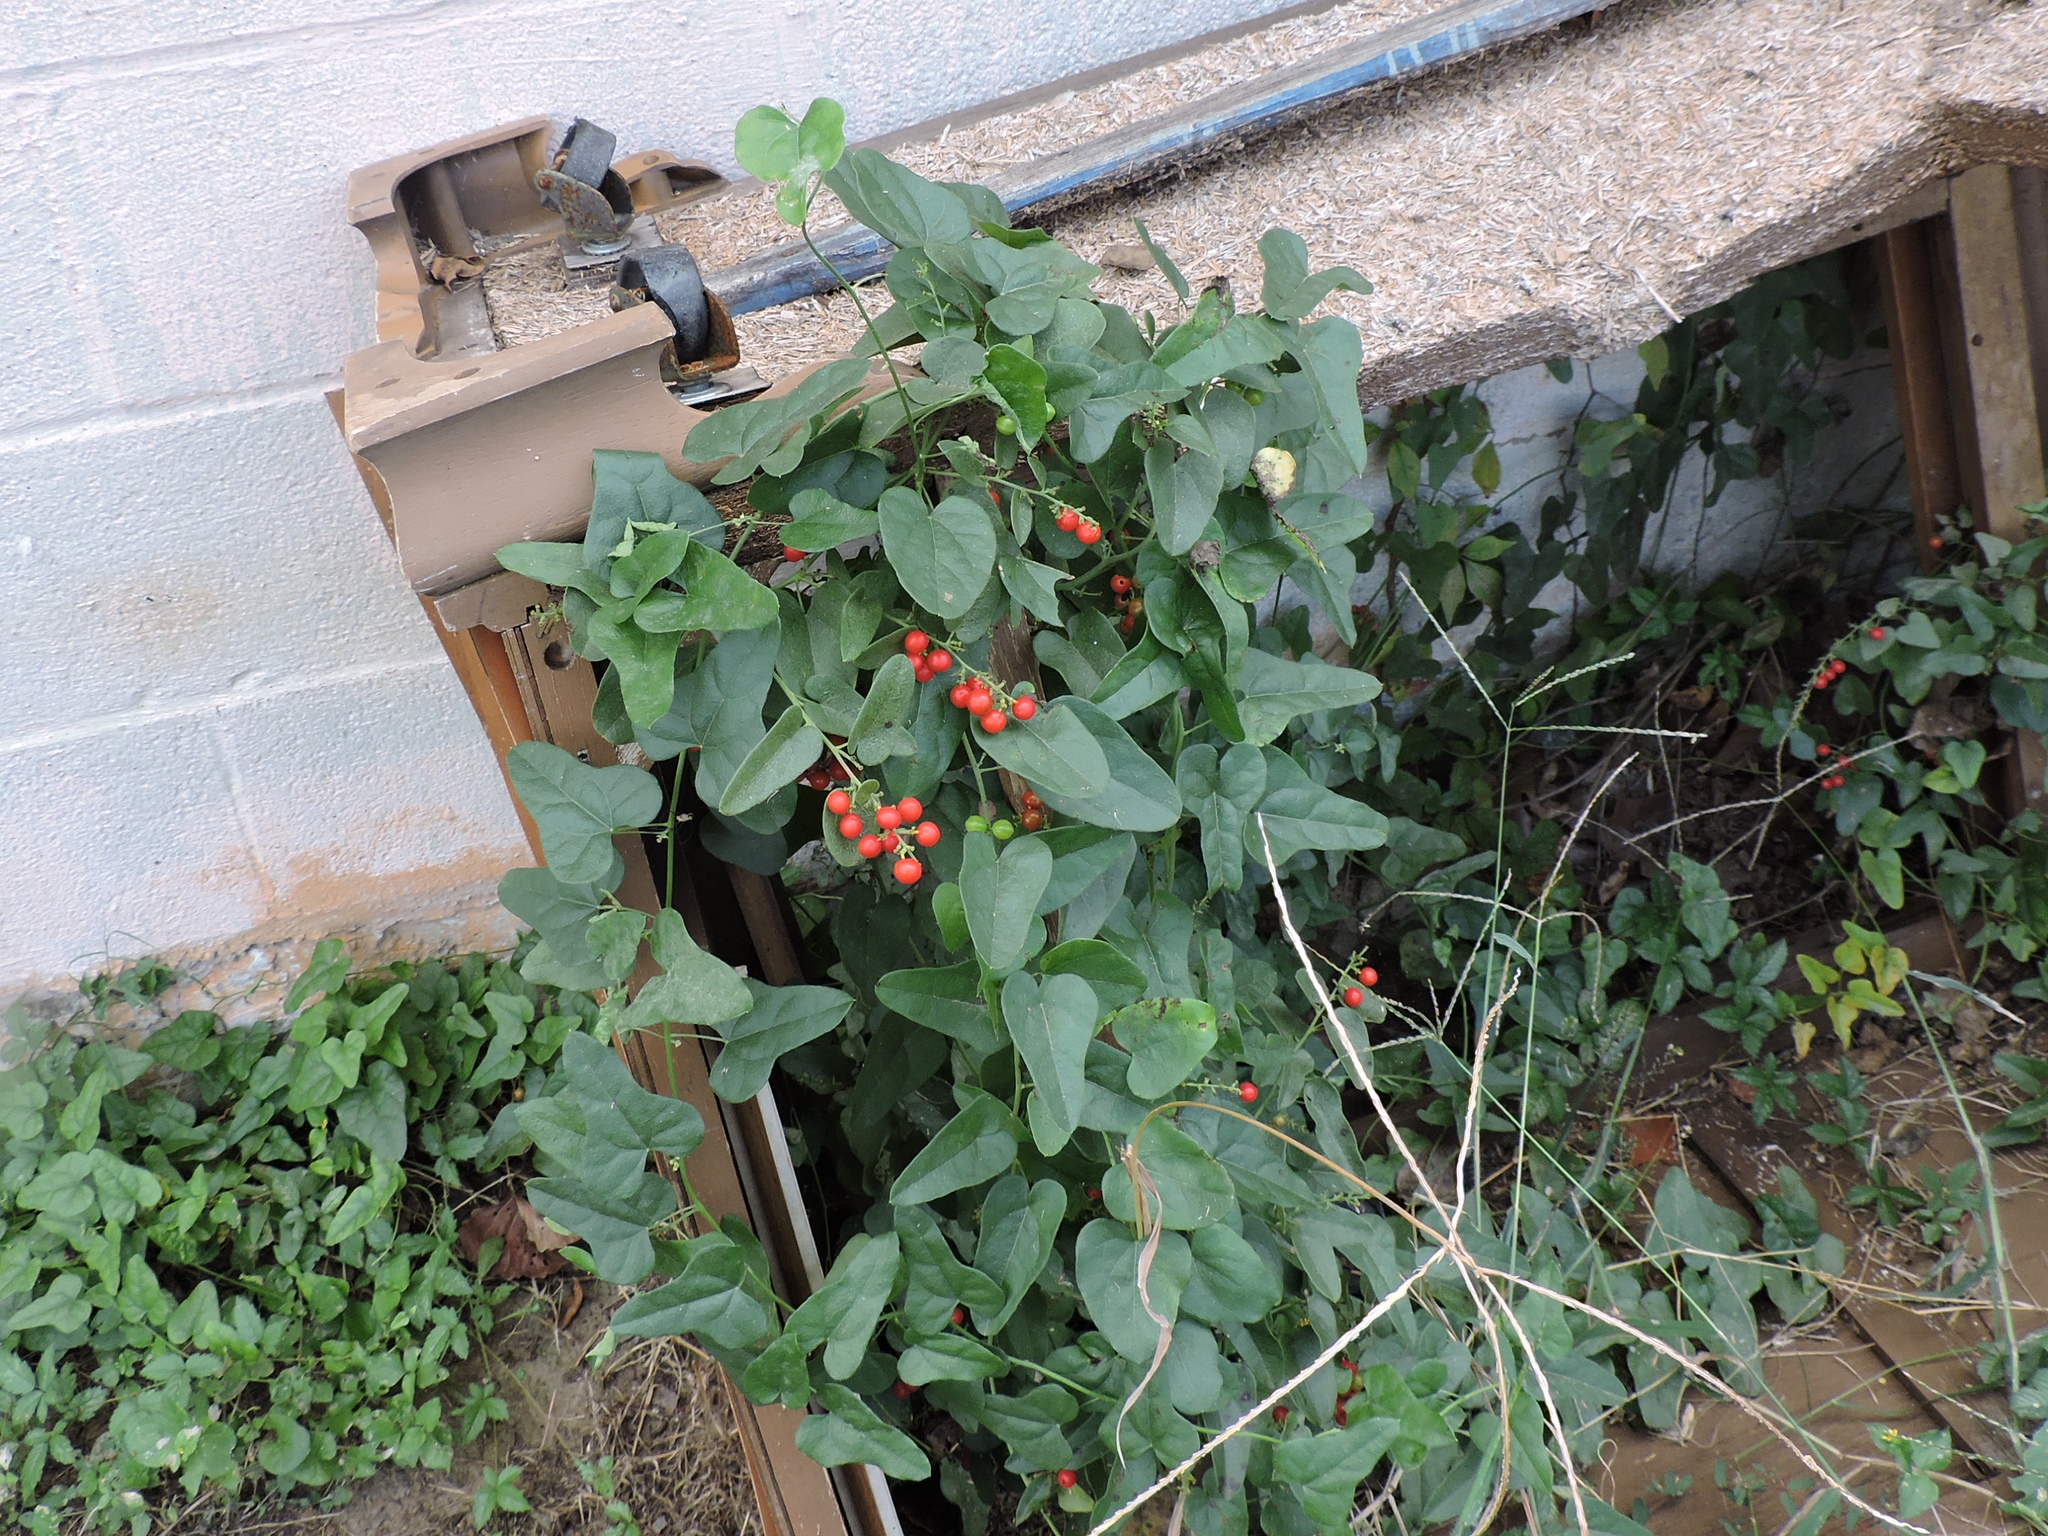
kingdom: Plantae
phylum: Tracheophyta
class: Magnoliopsida
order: Ranunculales
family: Menispermaceae
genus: Cocculus
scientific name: Cocculus carolinus
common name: Carolina moonseed
